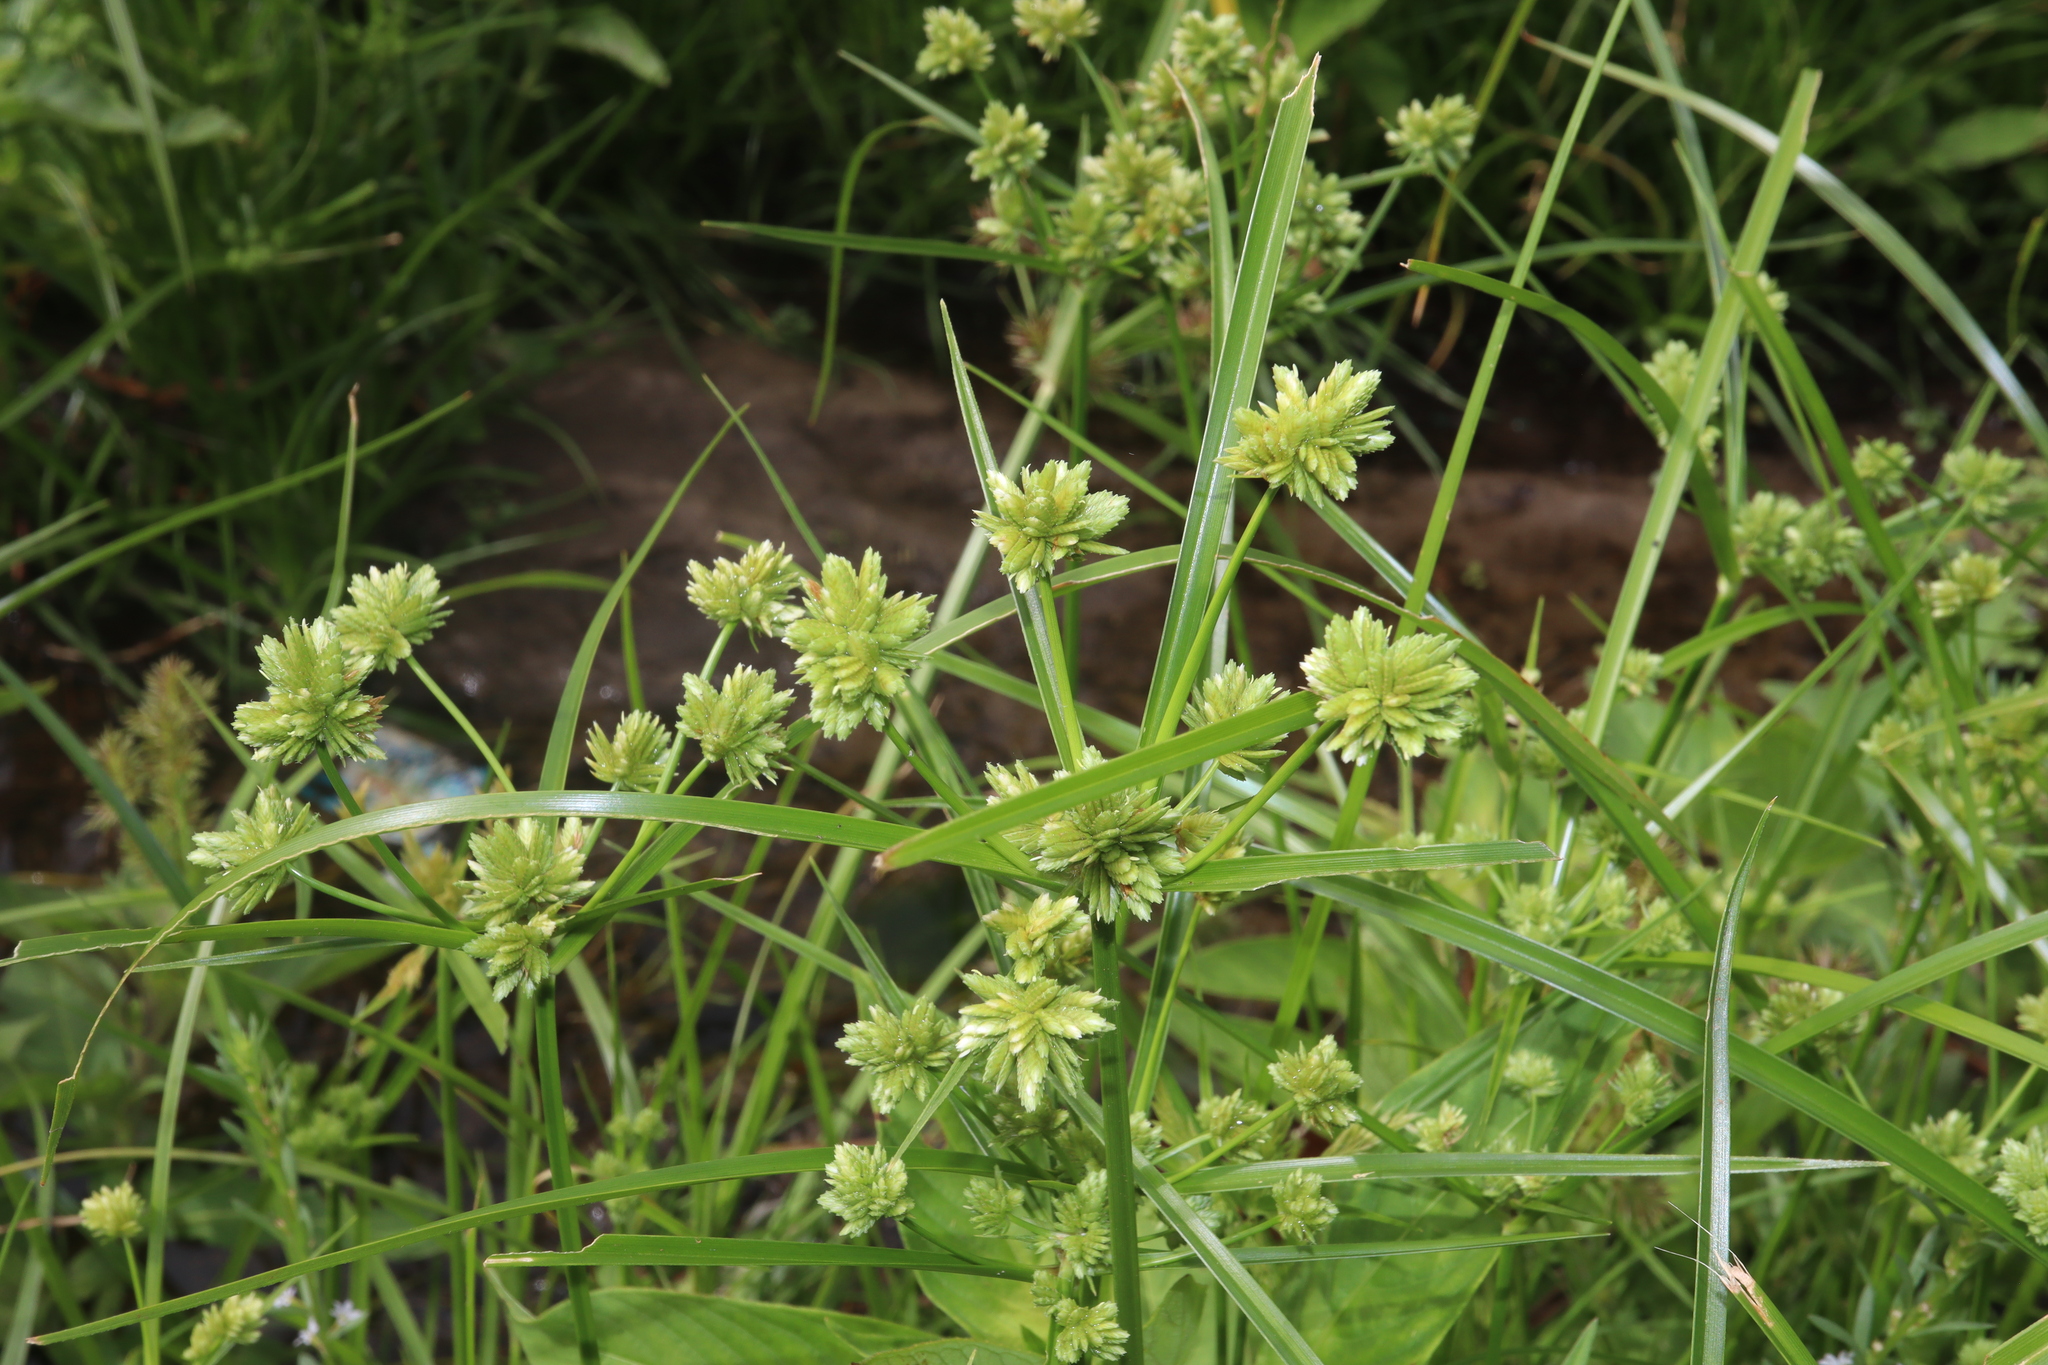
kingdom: Plantae
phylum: Tracheophyta
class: Liliopsida
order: Poales
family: Cyperaceae
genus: Cyperus
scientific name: Cyperus eragrostis
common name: Tall flatsedge
